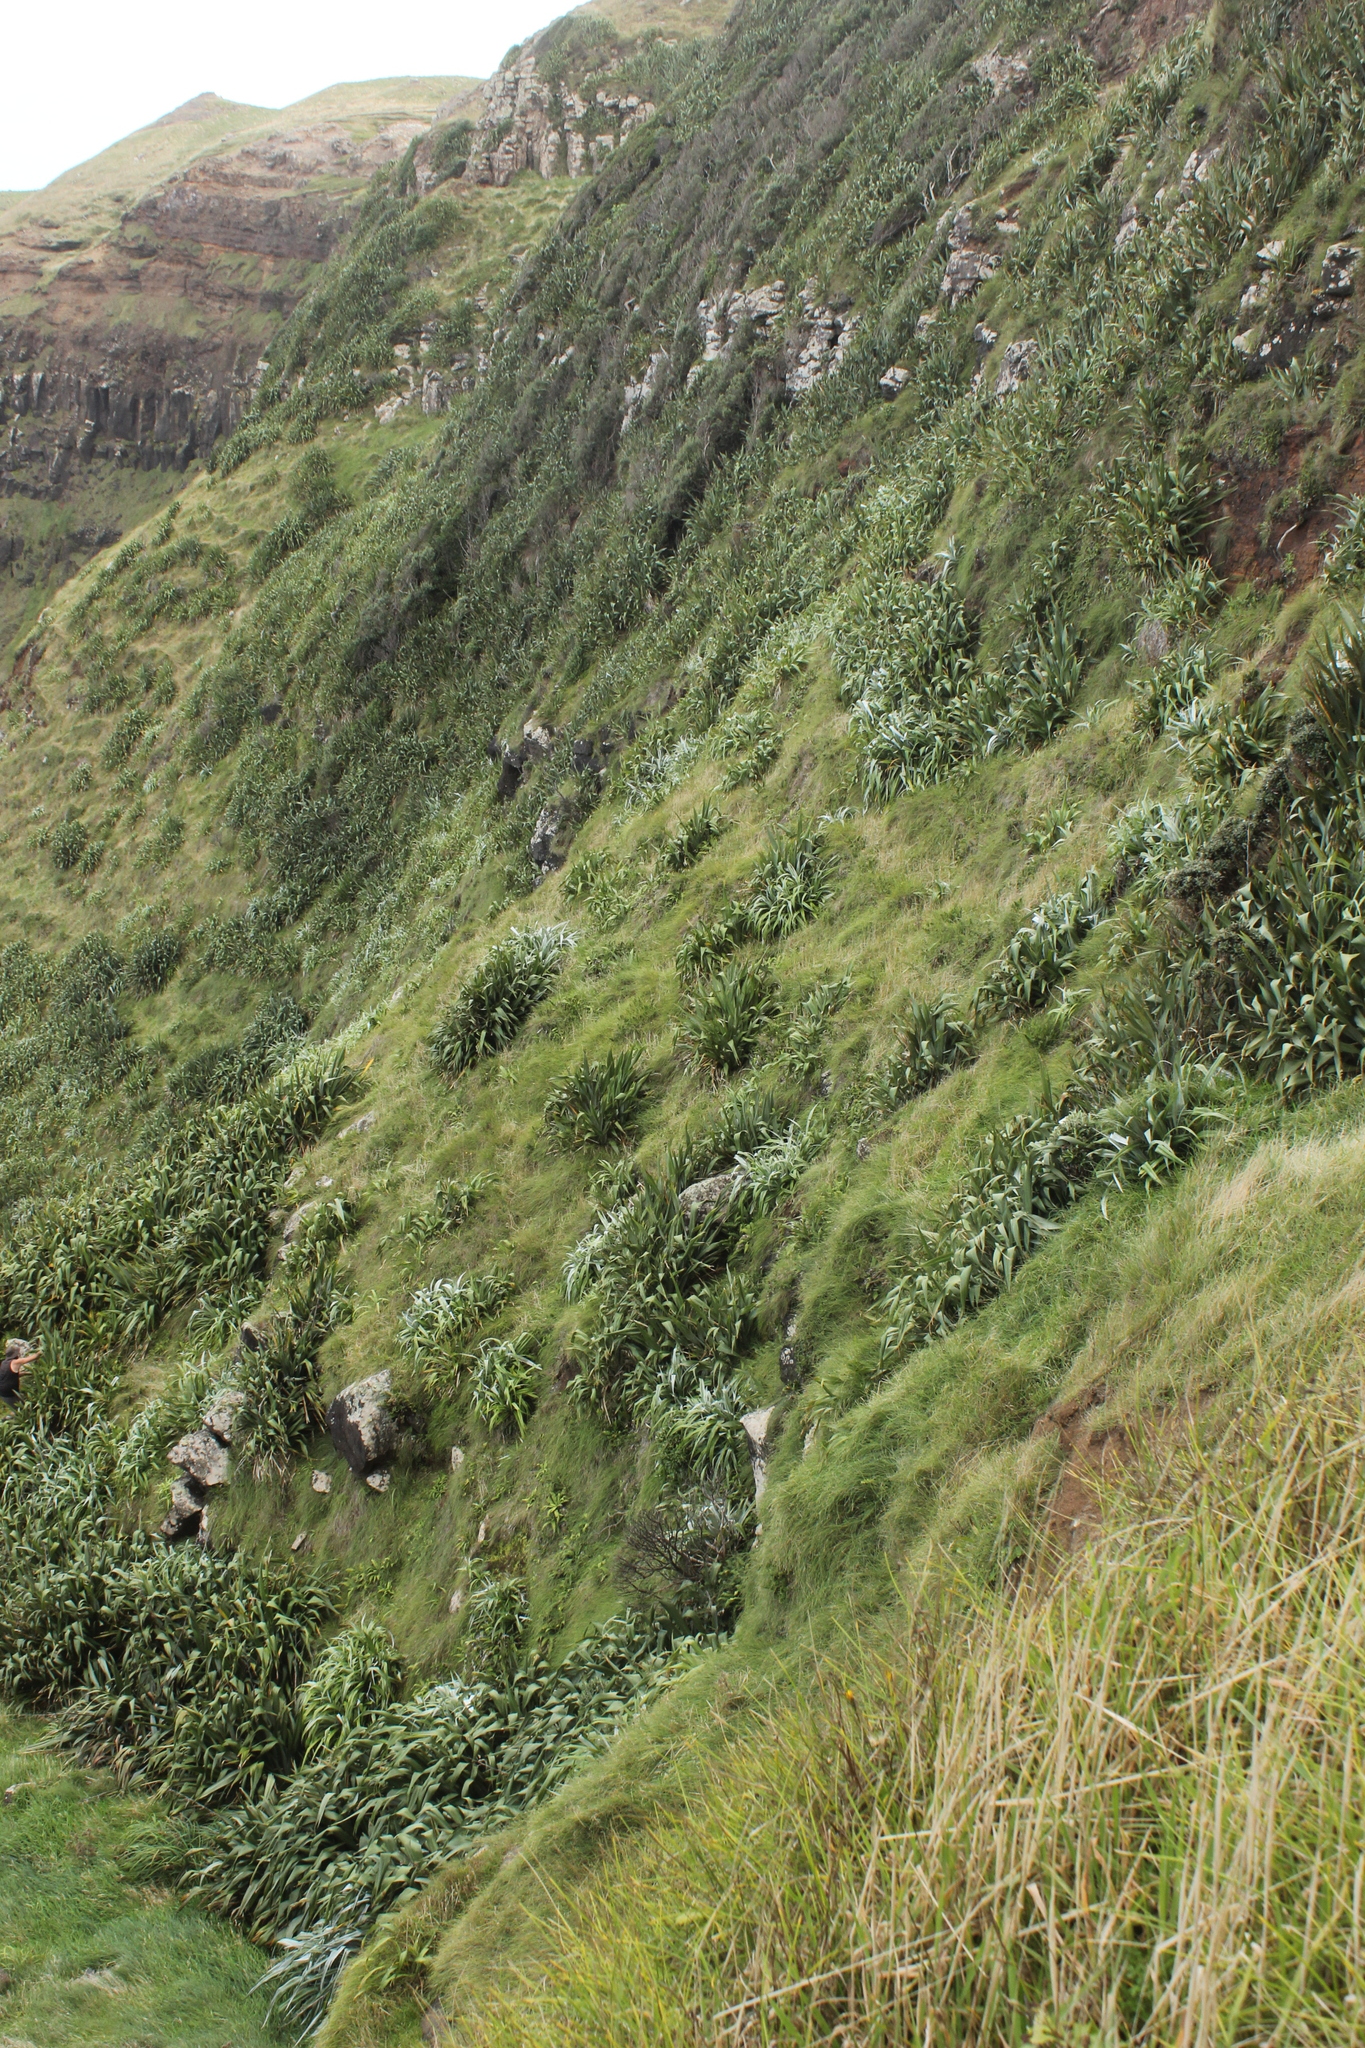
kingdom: Plantae
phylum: Tracheophyta
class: Liliopsida
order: Asparagales
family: Asteliaceae
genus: Astelia
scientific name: Astelia chathamica
